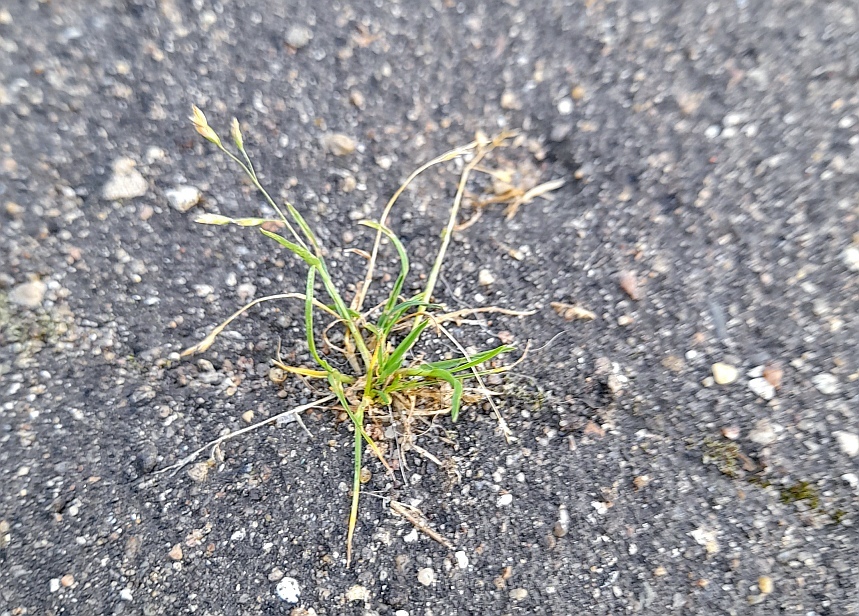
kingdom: Plantae
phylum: Tracheophyta
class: Liliopsida
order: Poales
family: Poaceae
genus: Poa
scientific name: Poa annua
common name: Annual bluegrass
